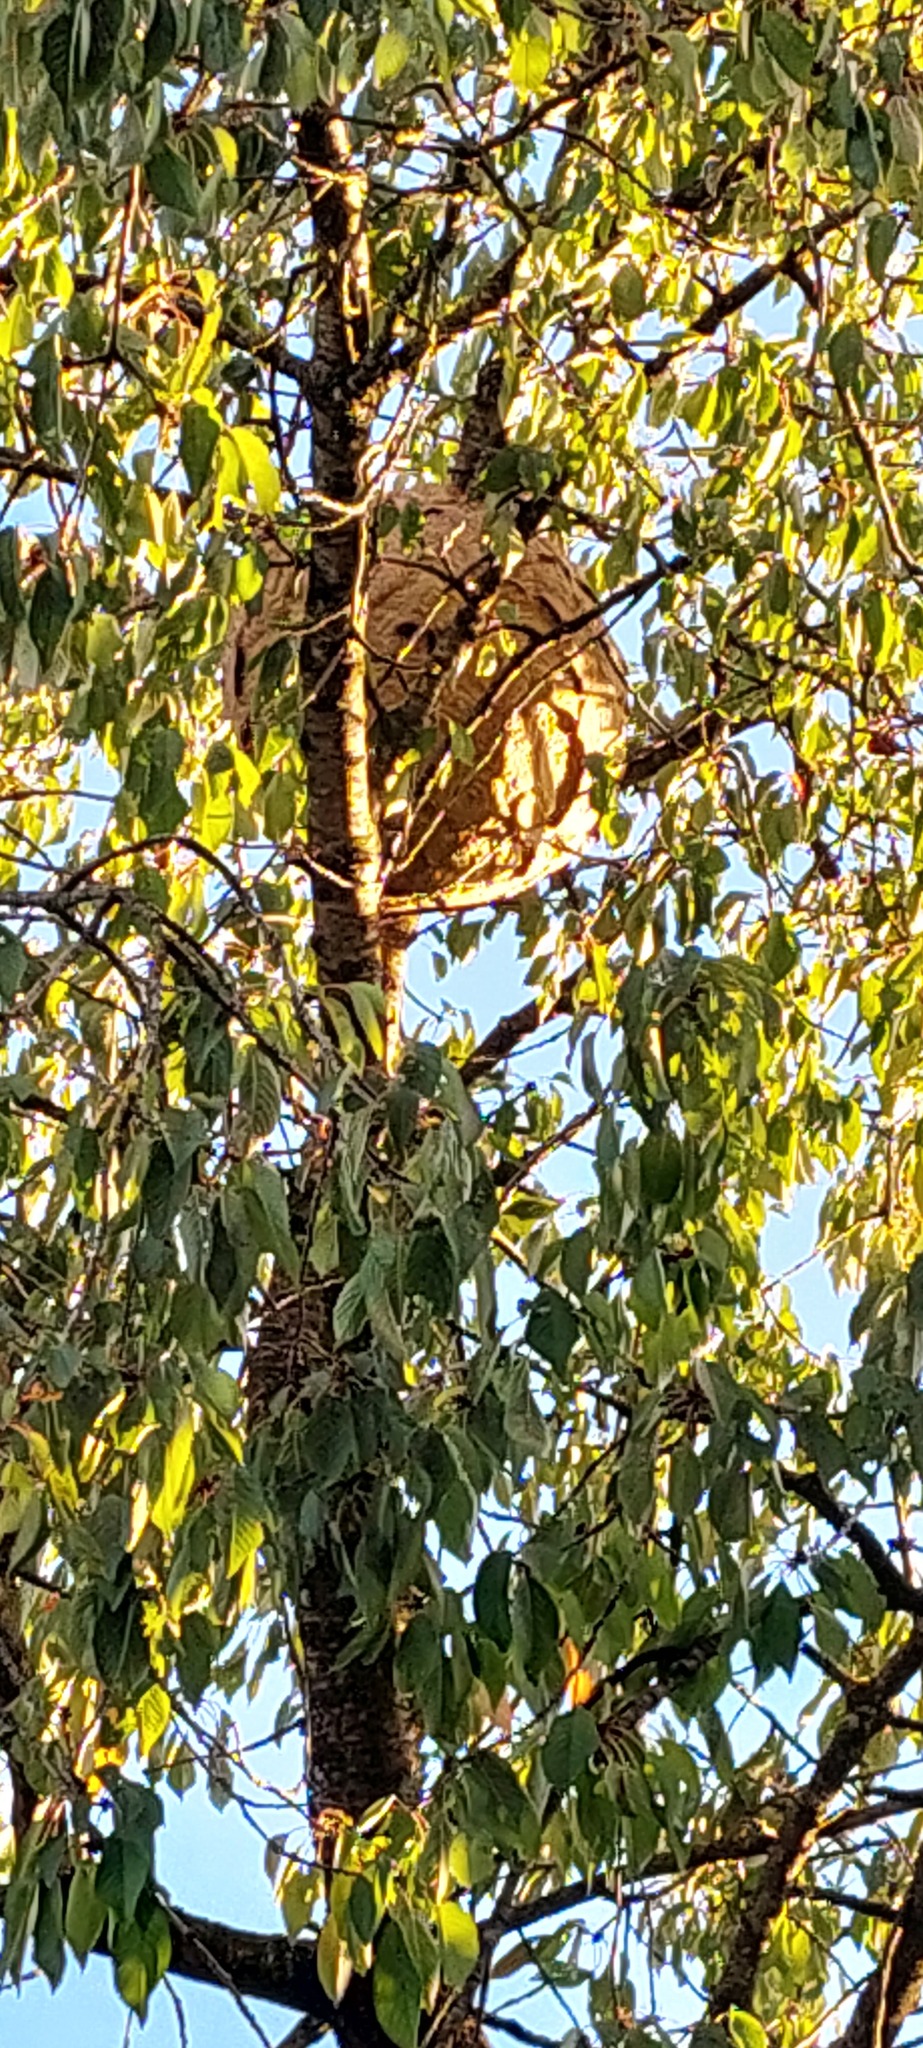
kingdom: Animalia
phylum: Arthropoda
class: Insecta
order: Hymenoptera
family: Vespidae
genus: Vespa
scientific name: Vespa velutina
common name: Asian hornet
